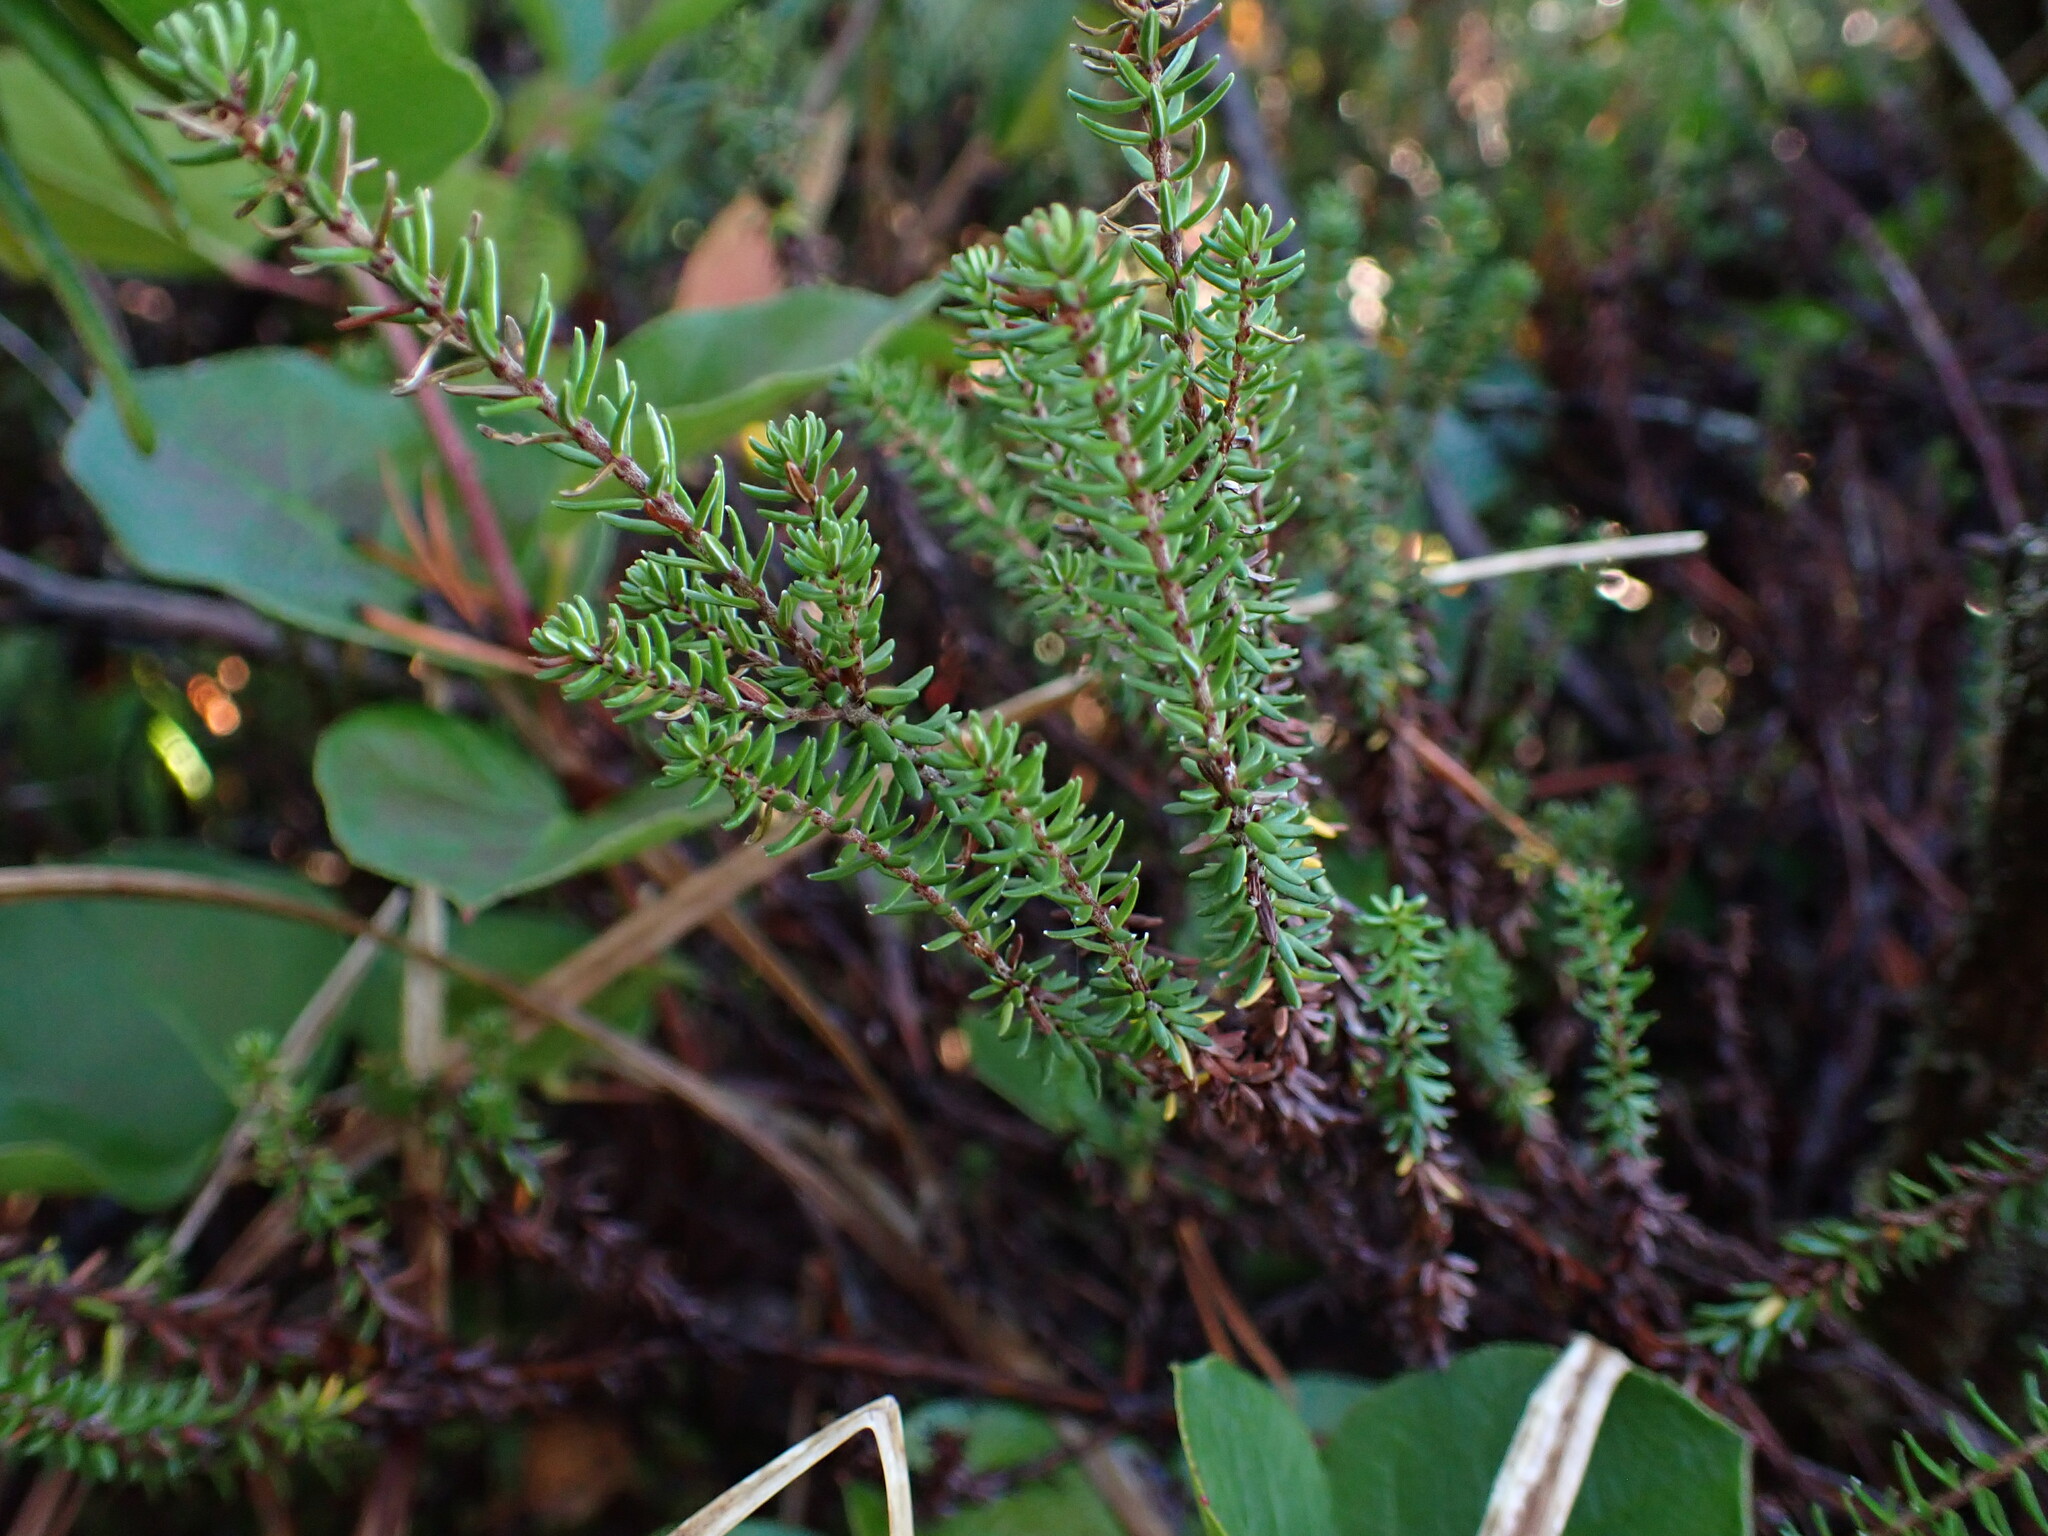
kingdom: Plantae
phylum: Tracheophyta
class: Magnoliopsida
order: Ericales
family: Ericaceae
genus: Empetrum
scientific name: Empetrum nigrum
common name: Black crowberry
